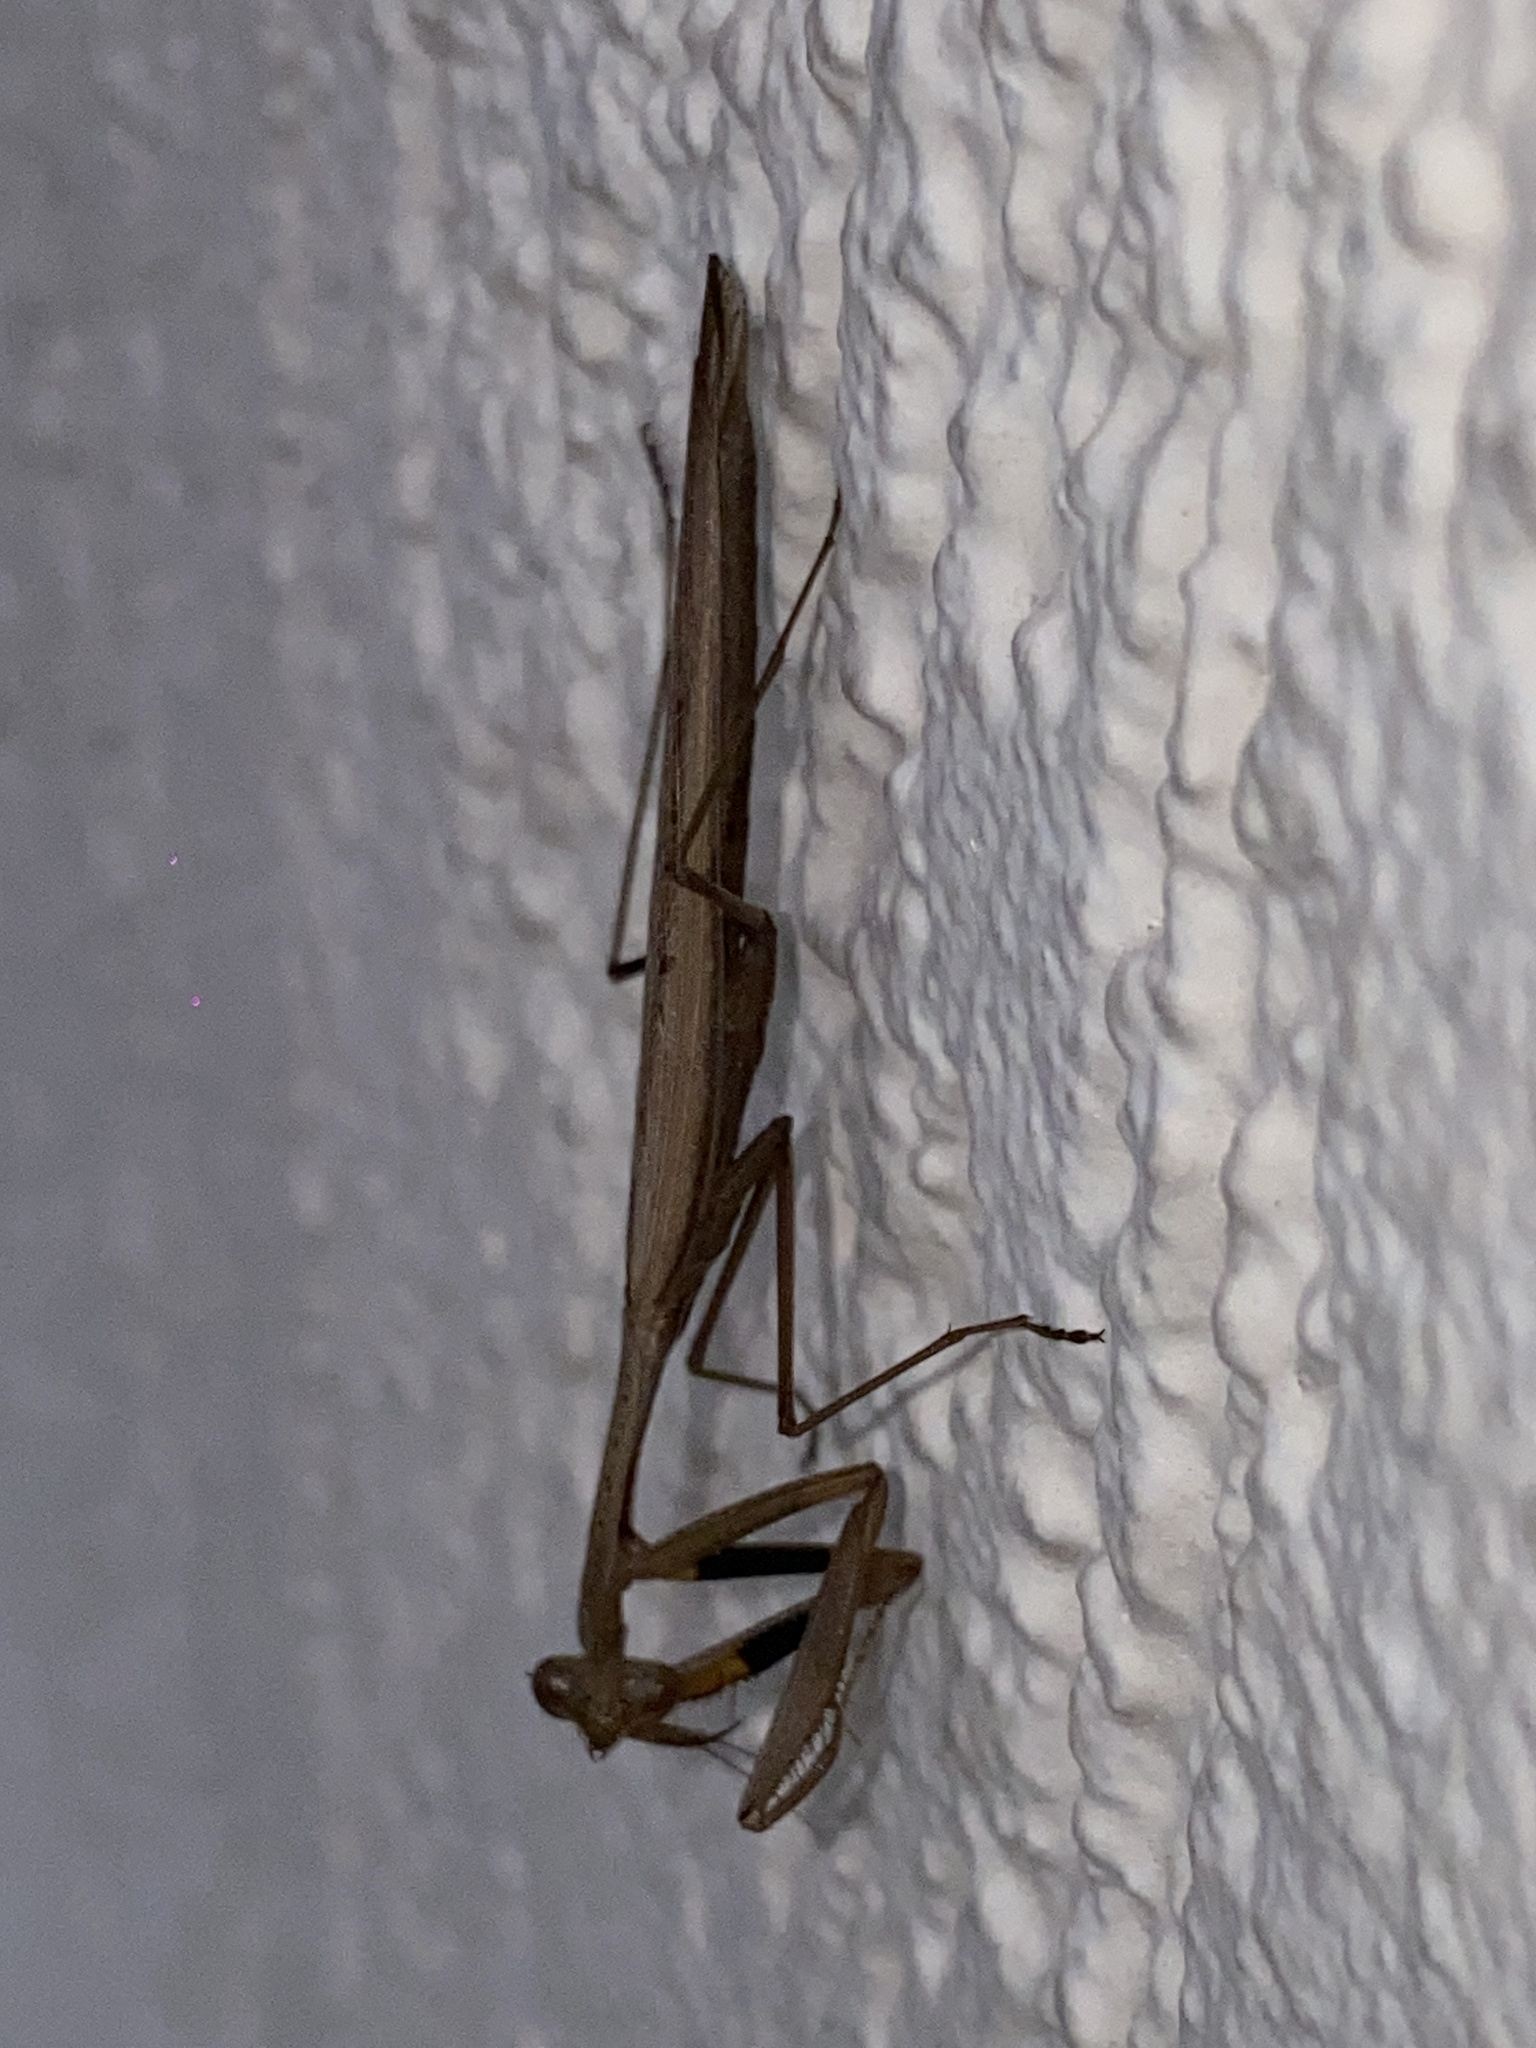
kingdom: Animalia
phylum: Arthropoda
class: Insecta
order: Mantodea
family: Mantidae
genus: Statilia
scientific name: Statilia apicalis
